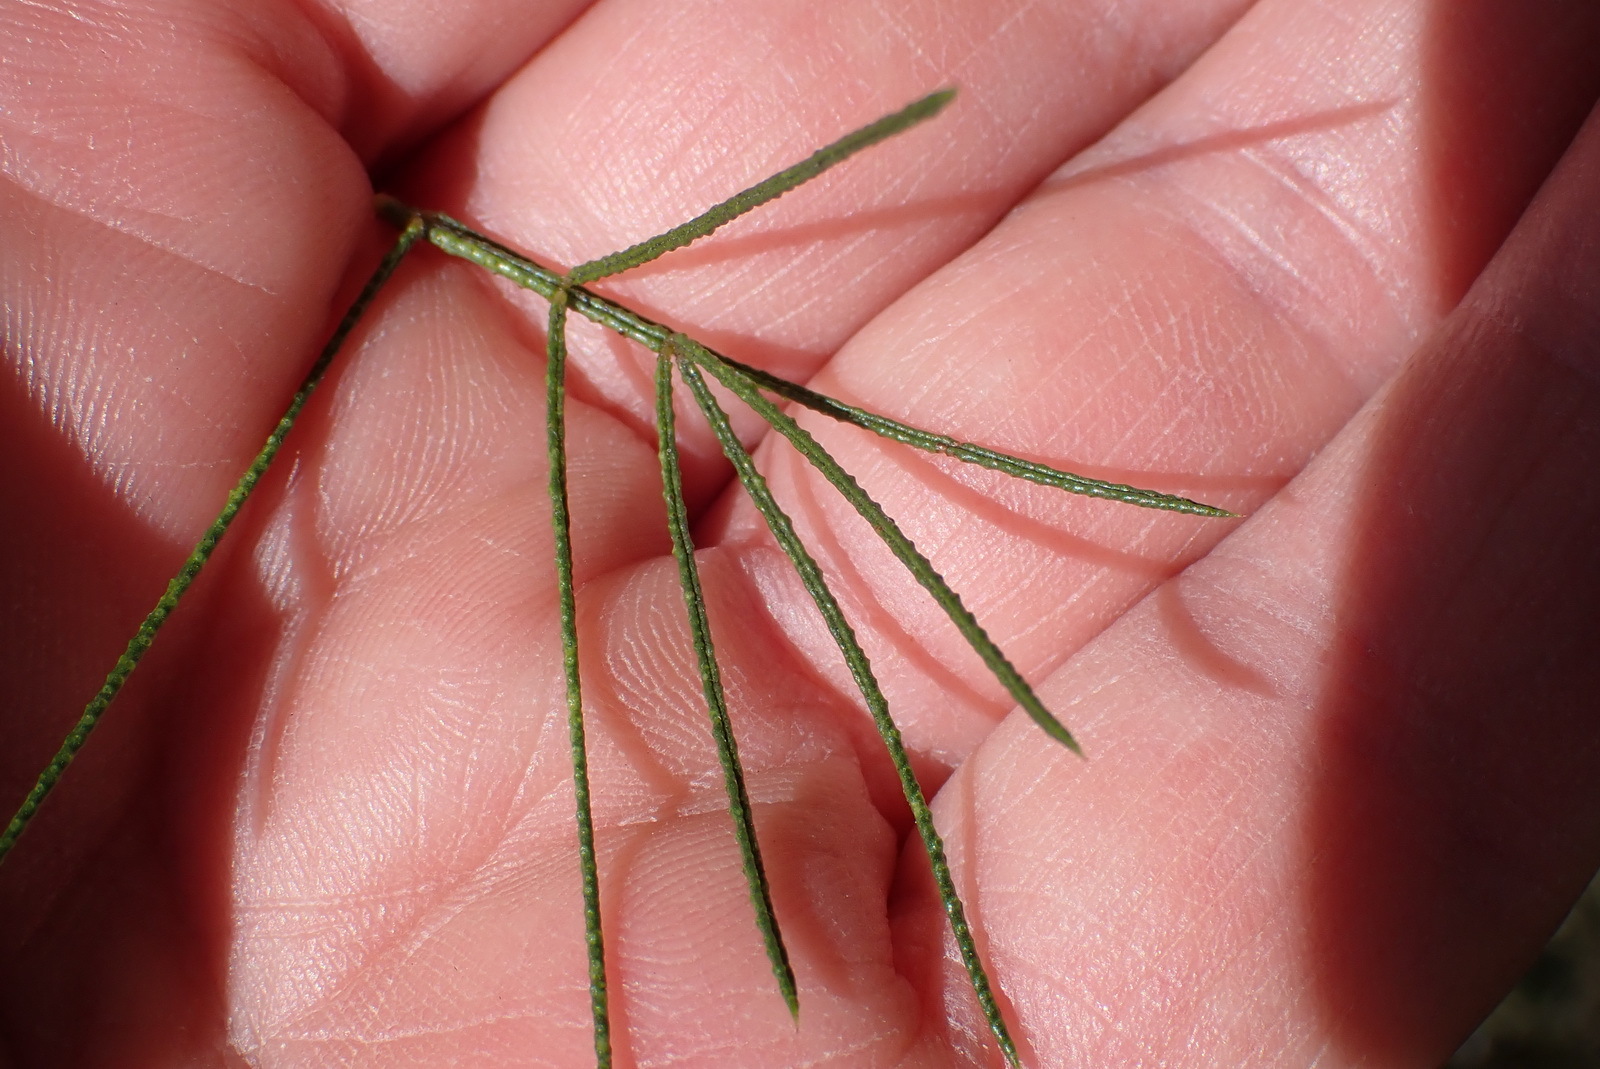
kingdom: Plantae
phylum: Tracheophyta
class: Magnoliopsida
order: Fabales
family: Fabaceae
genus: Psoralea
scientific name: Psoralea floccosa
